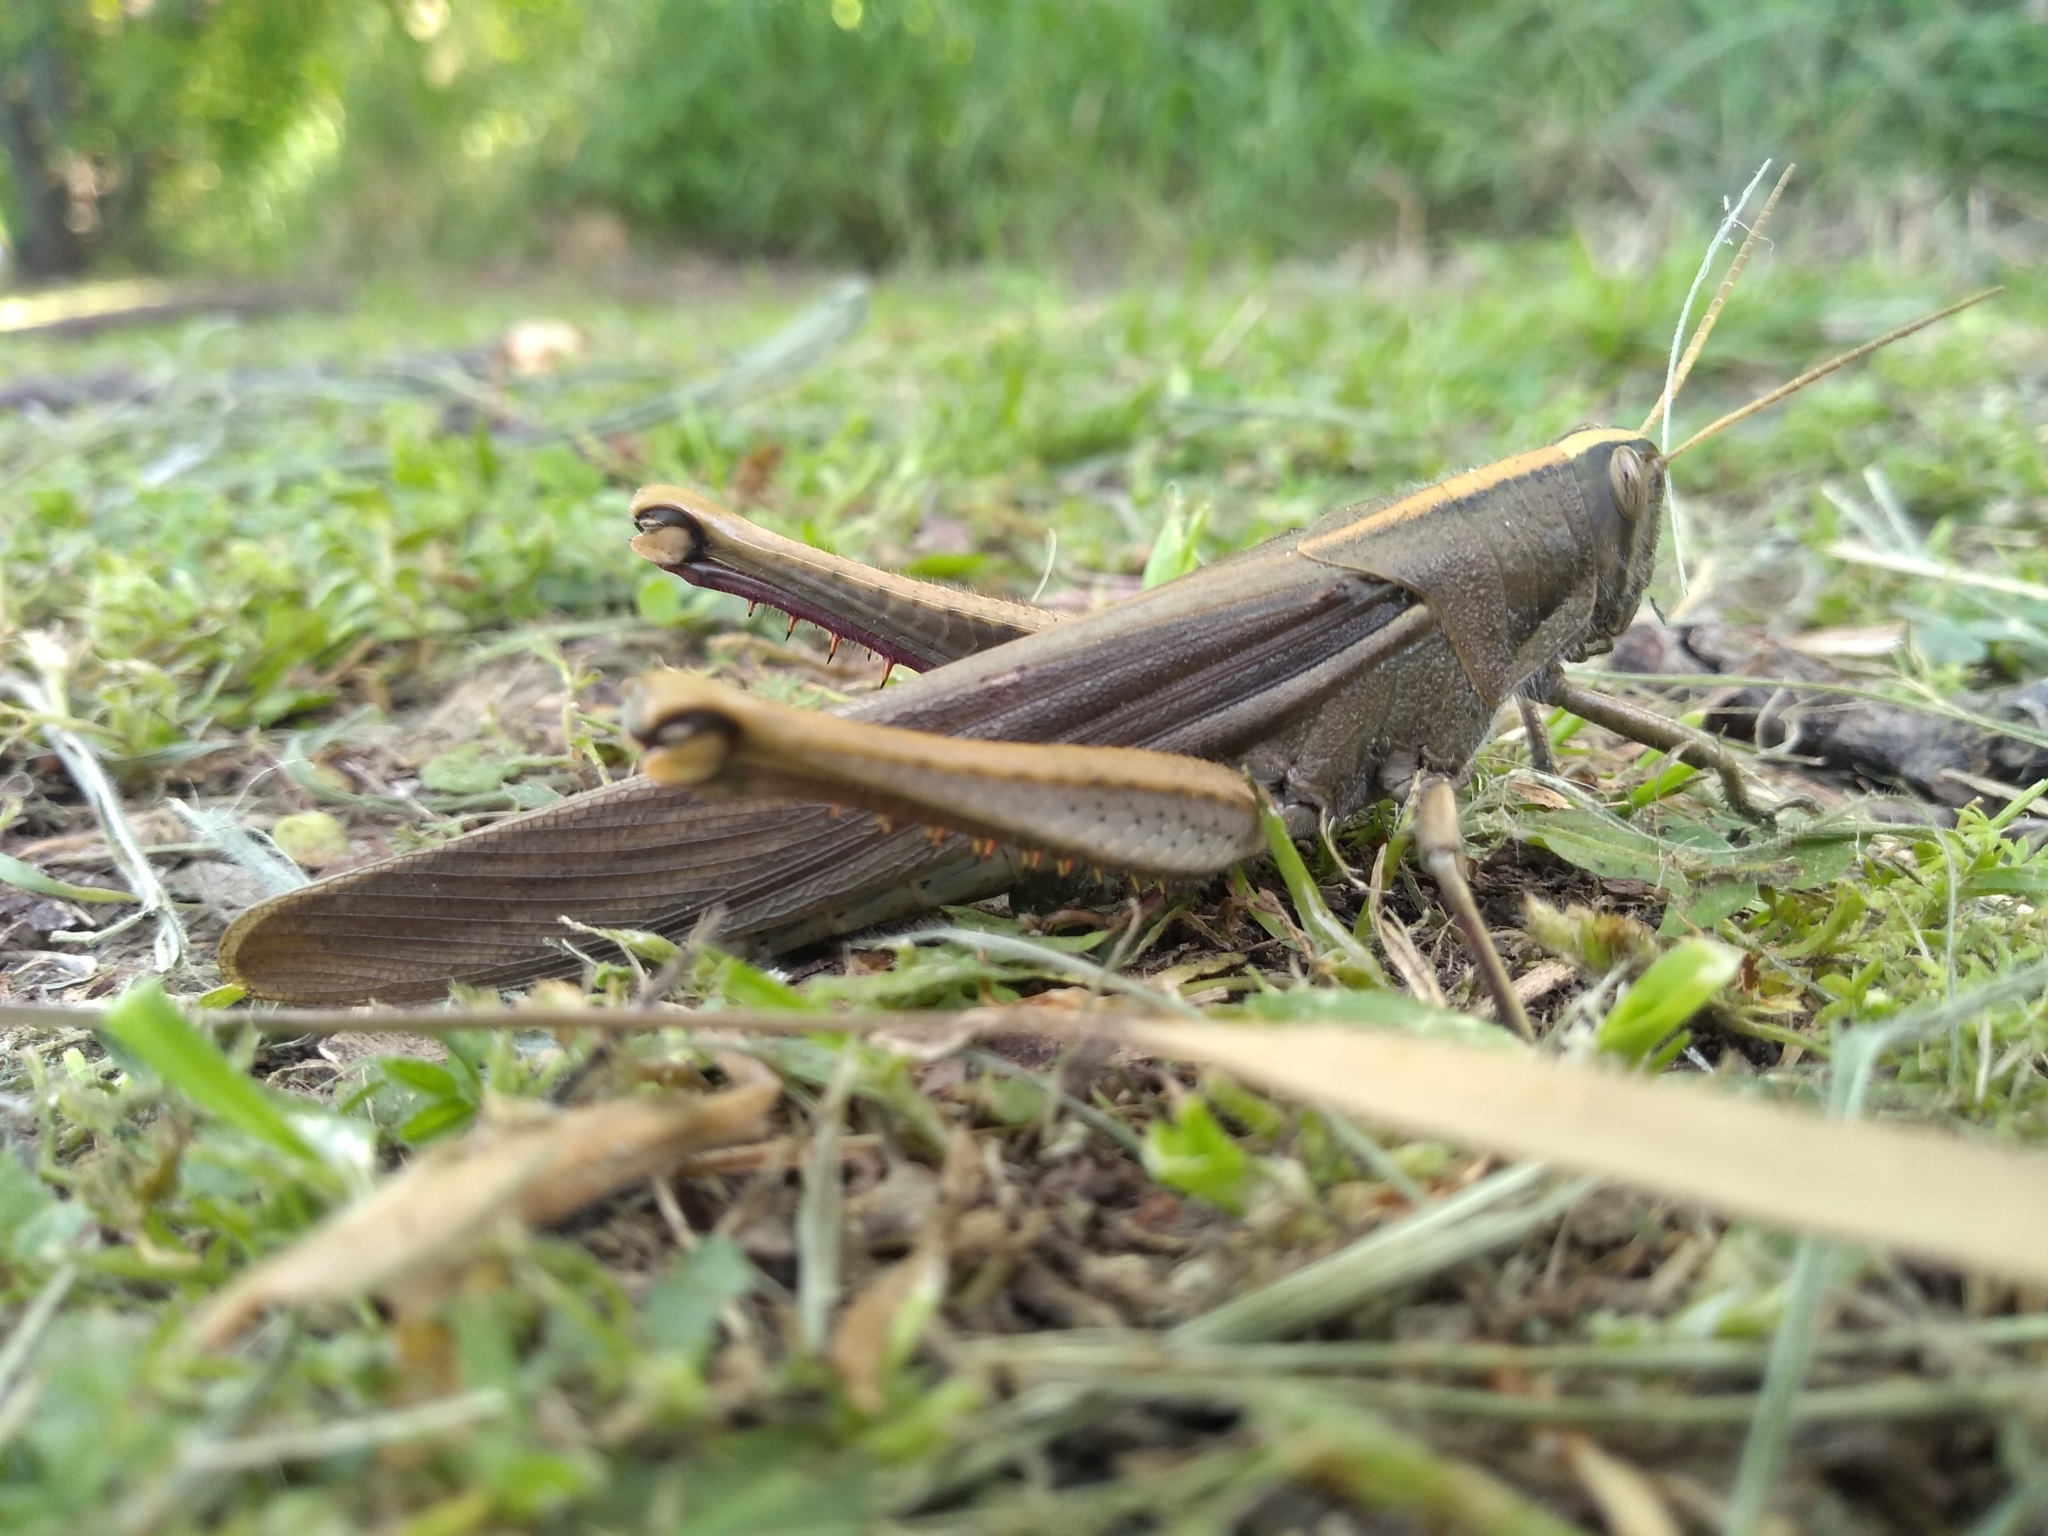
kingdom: Animalia
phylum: Arthropoda
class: Insecta
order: Orthoptera
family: Acrididae
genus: Schistocerca
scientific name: Schistocerca flavofasciata
